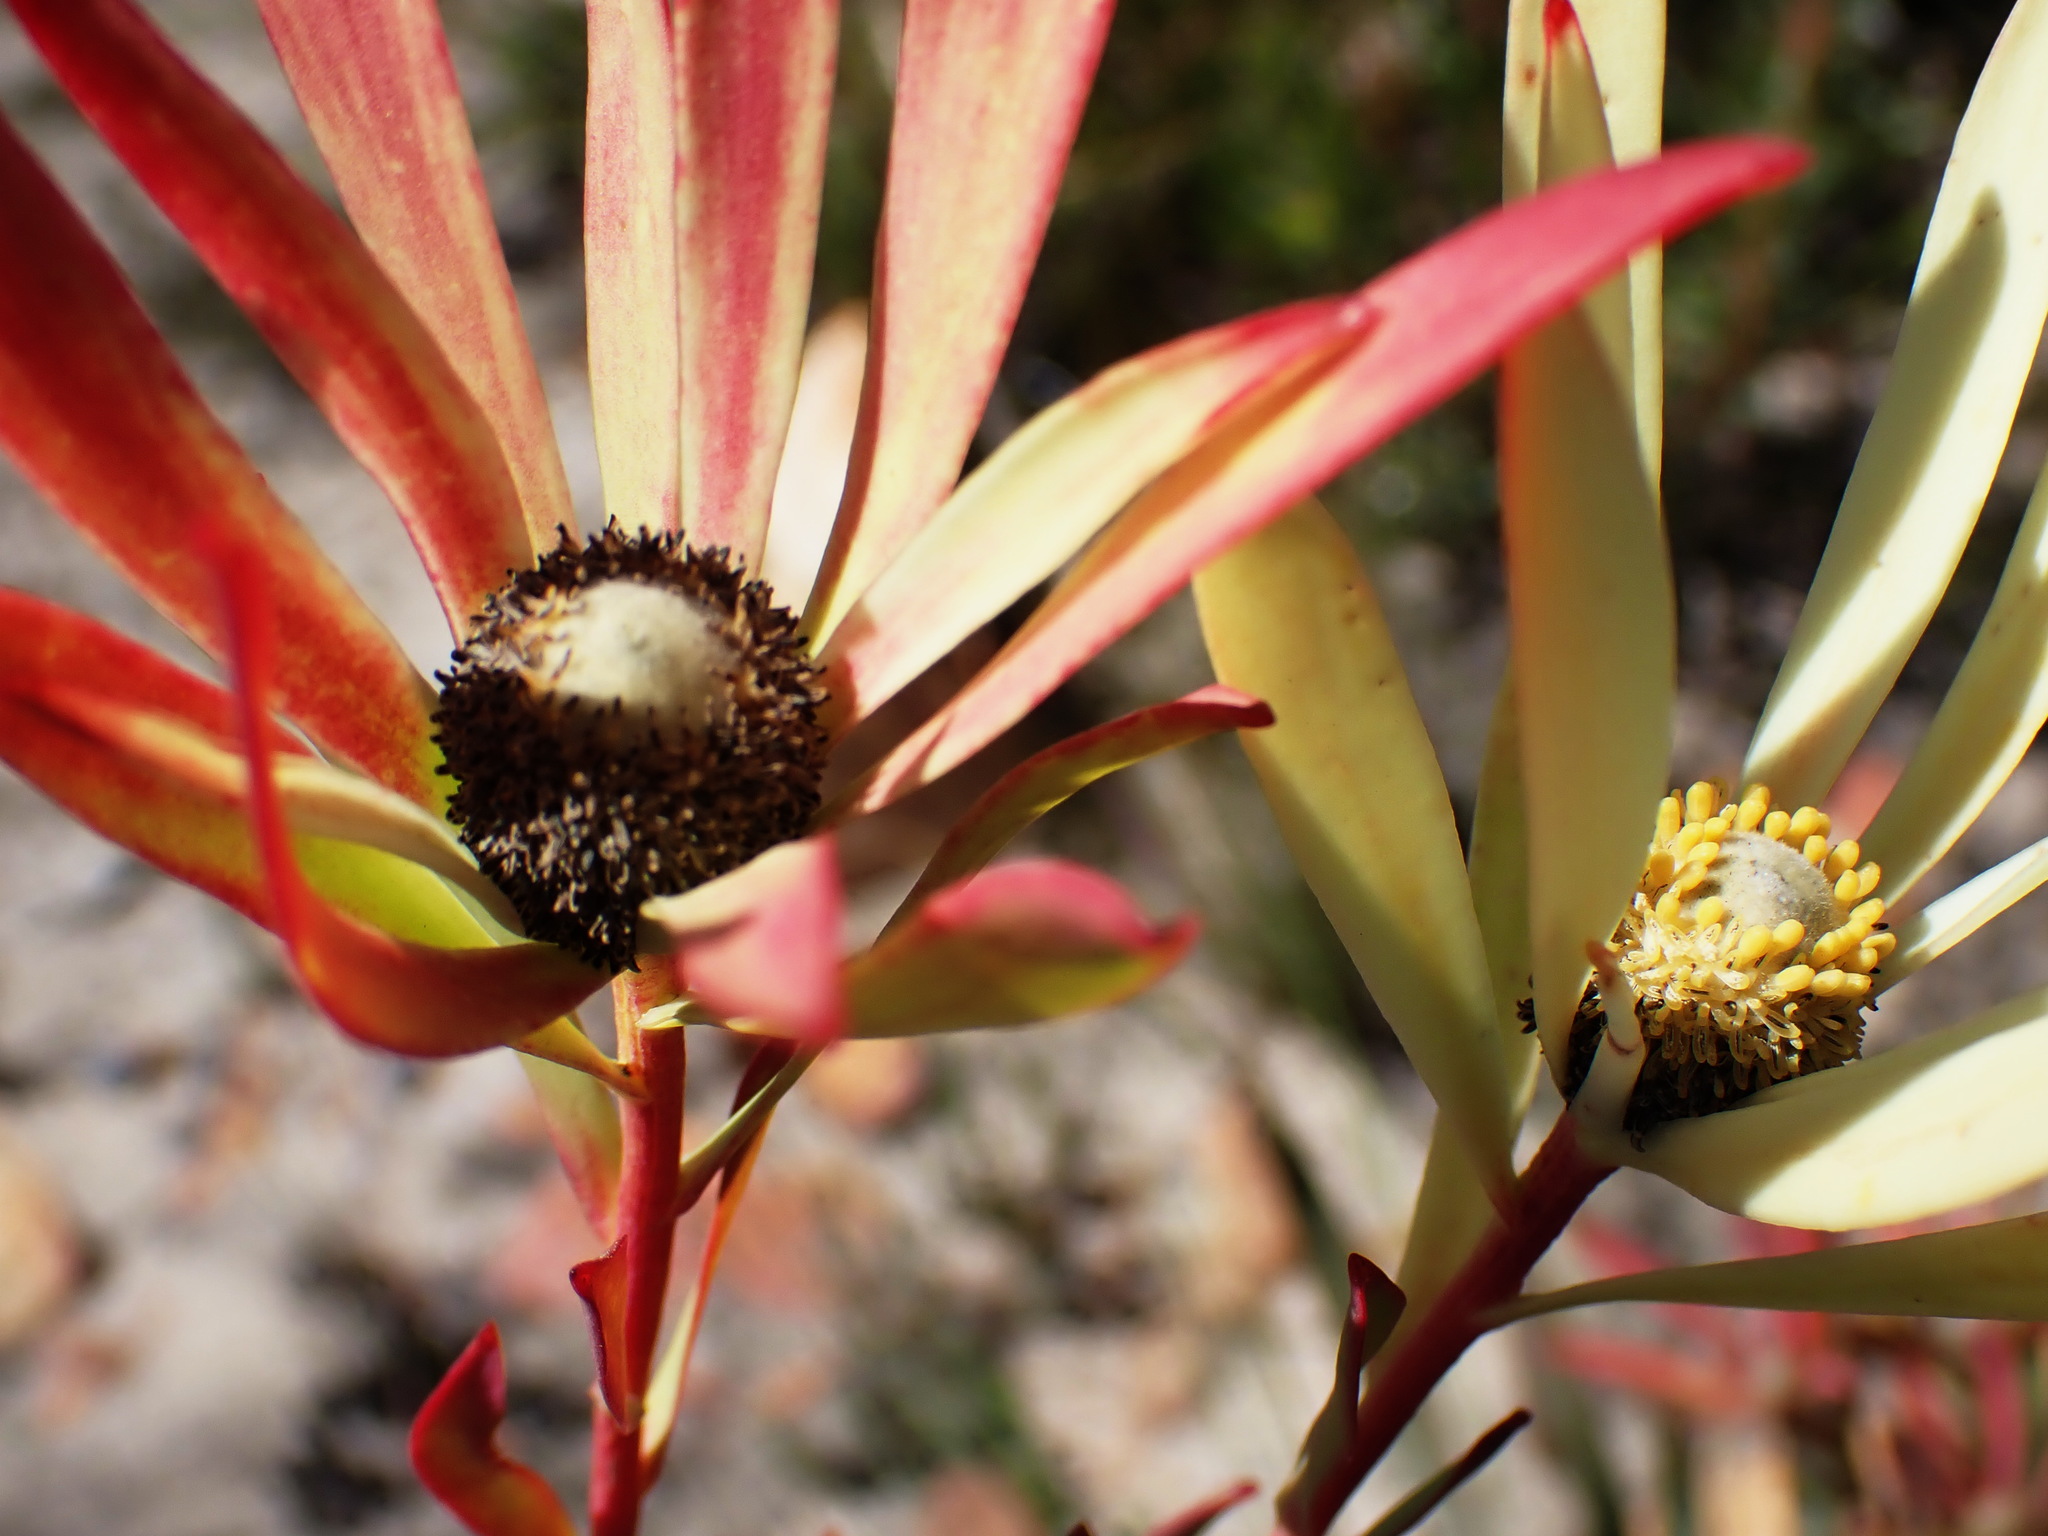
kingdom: Plantae
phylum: Tracheophyta
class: Magnoliopsida
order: Proteales
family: Proteaceae
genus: Leucadendron
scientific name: Leucadendron salignum
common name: Common sunshine conebush
